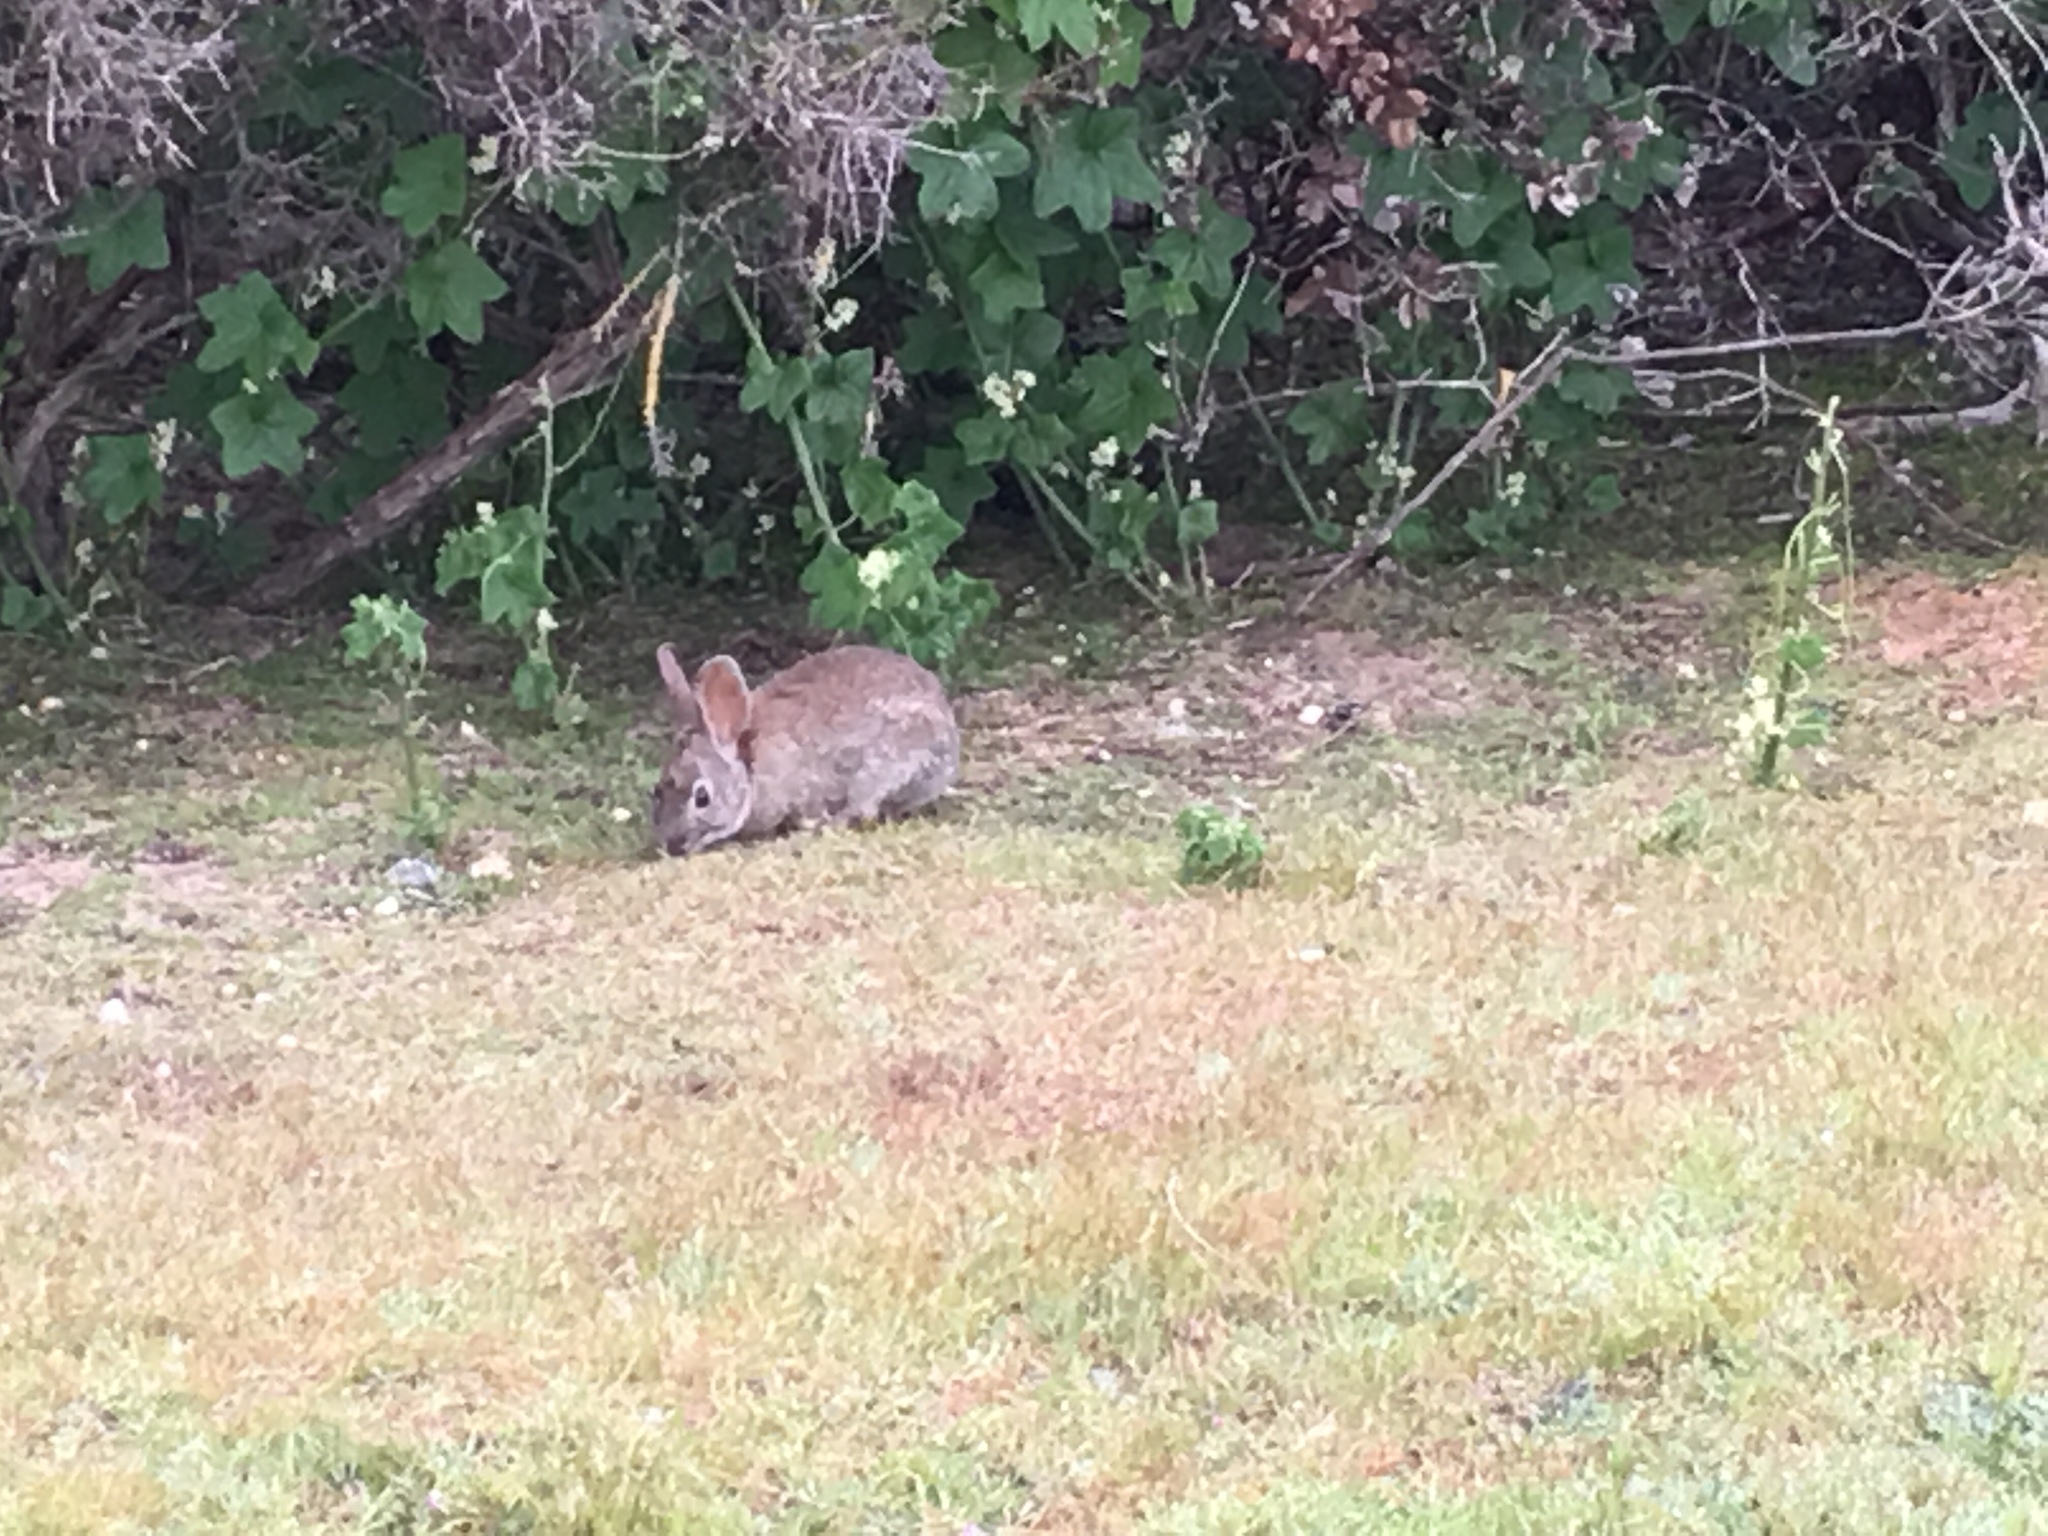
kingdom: Animalia
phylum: Chordata
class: Mammalia
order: Lagomorpha
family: Leporidae
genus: Sylvilagus
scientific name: Sylvilagus bachmani
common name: Brush rabbit
